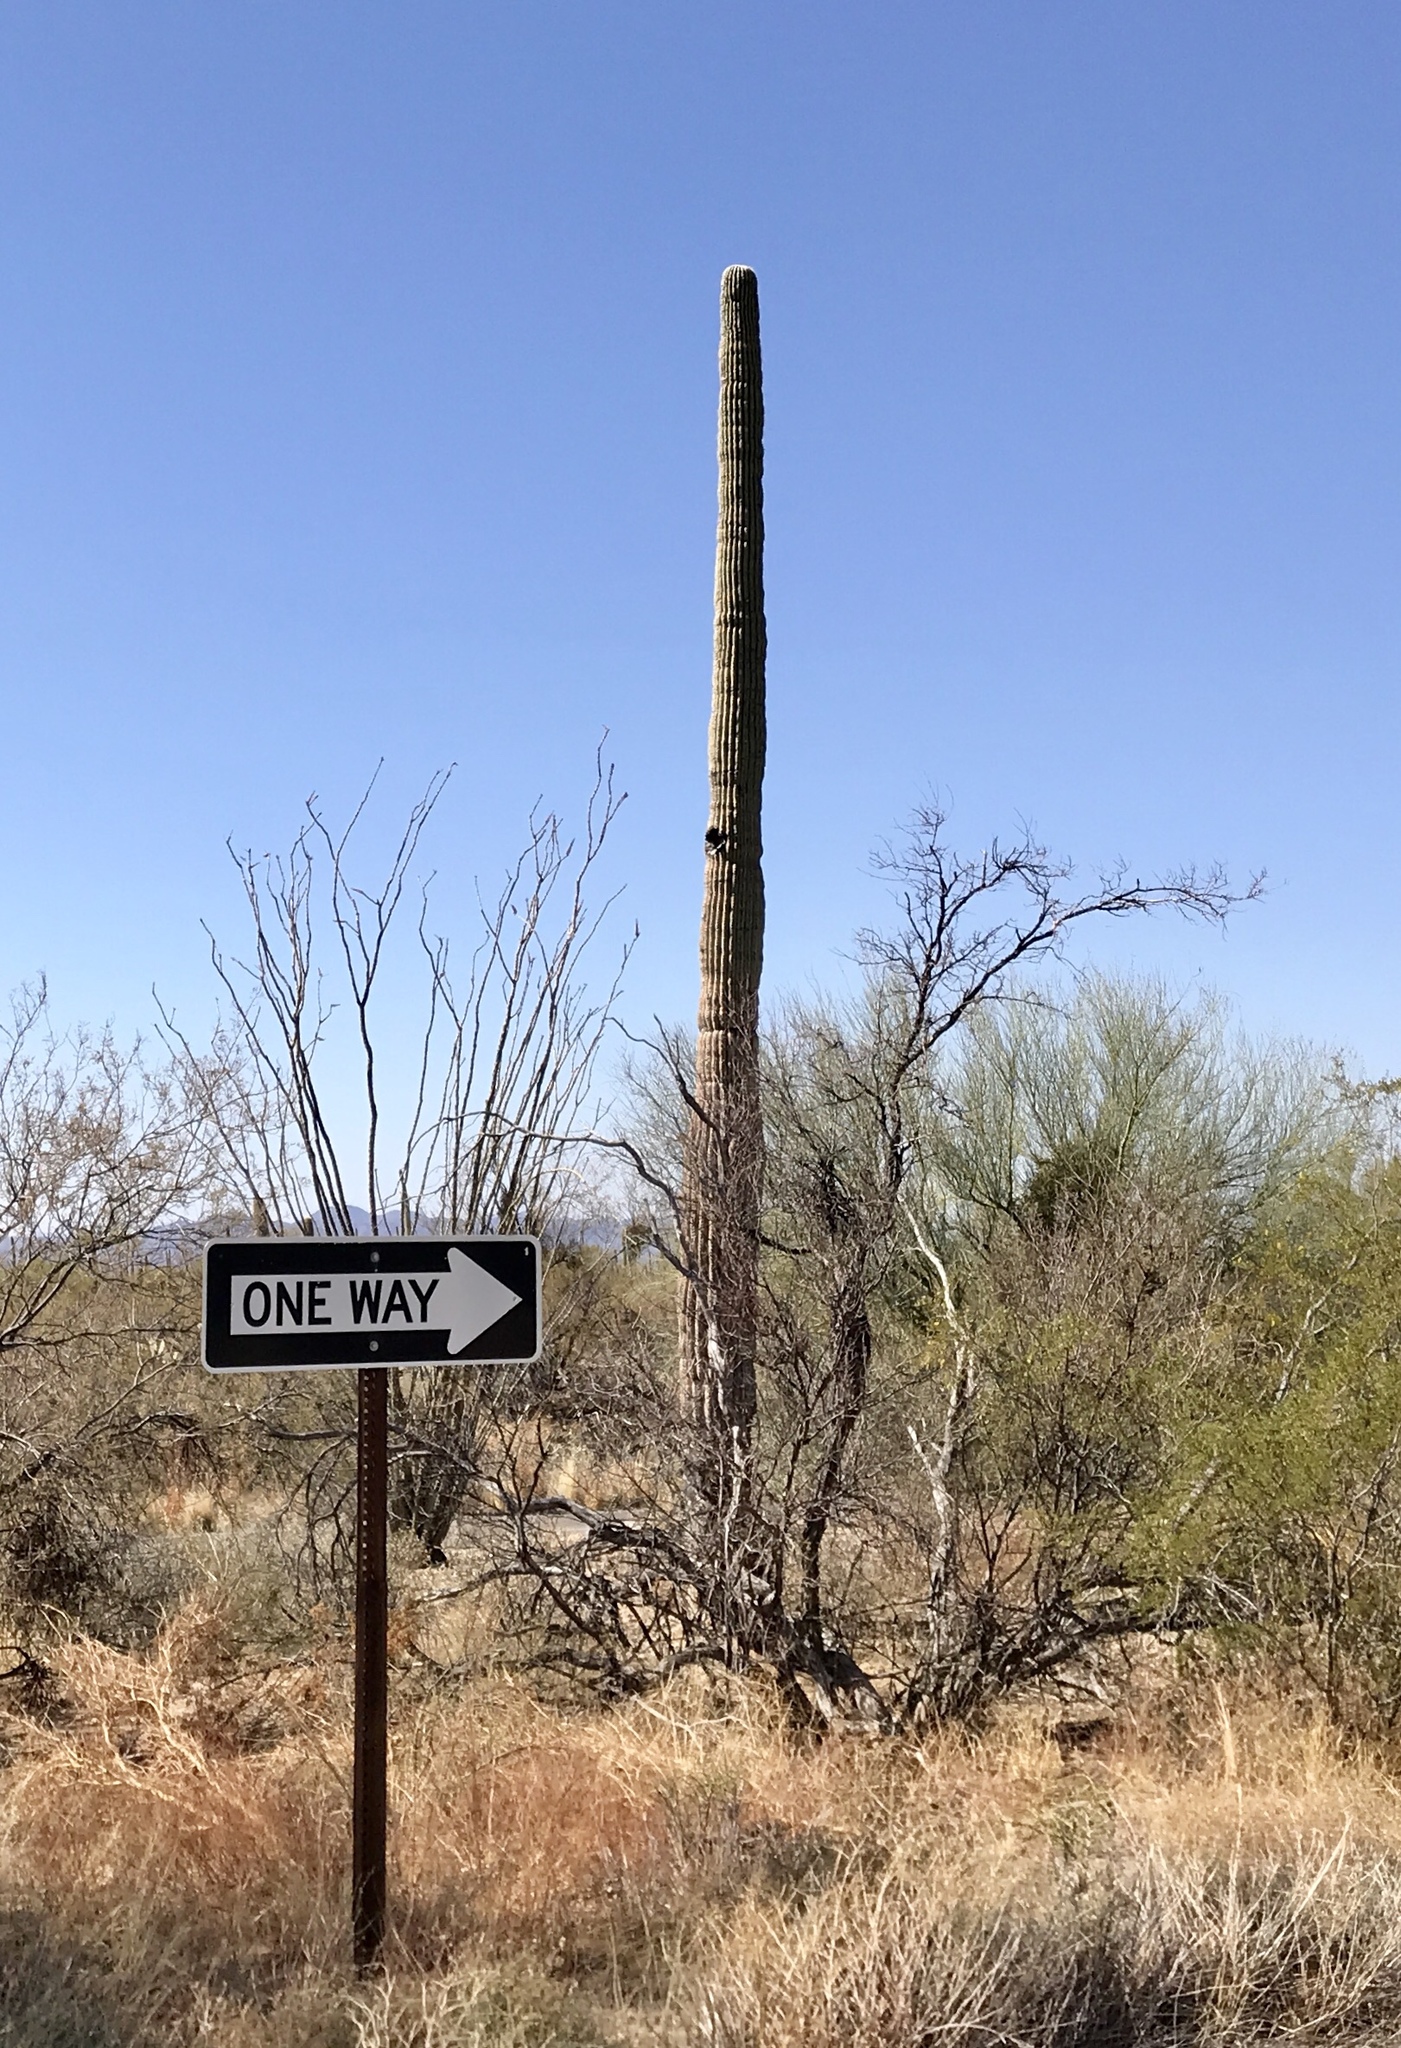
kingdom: Plantae
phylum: Tracheophyta
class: Magnoliopsida
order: Caryophyllales
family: Cactaceae
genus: Carnegiea
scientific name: Carnegiea gigantea
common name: Saguaro
